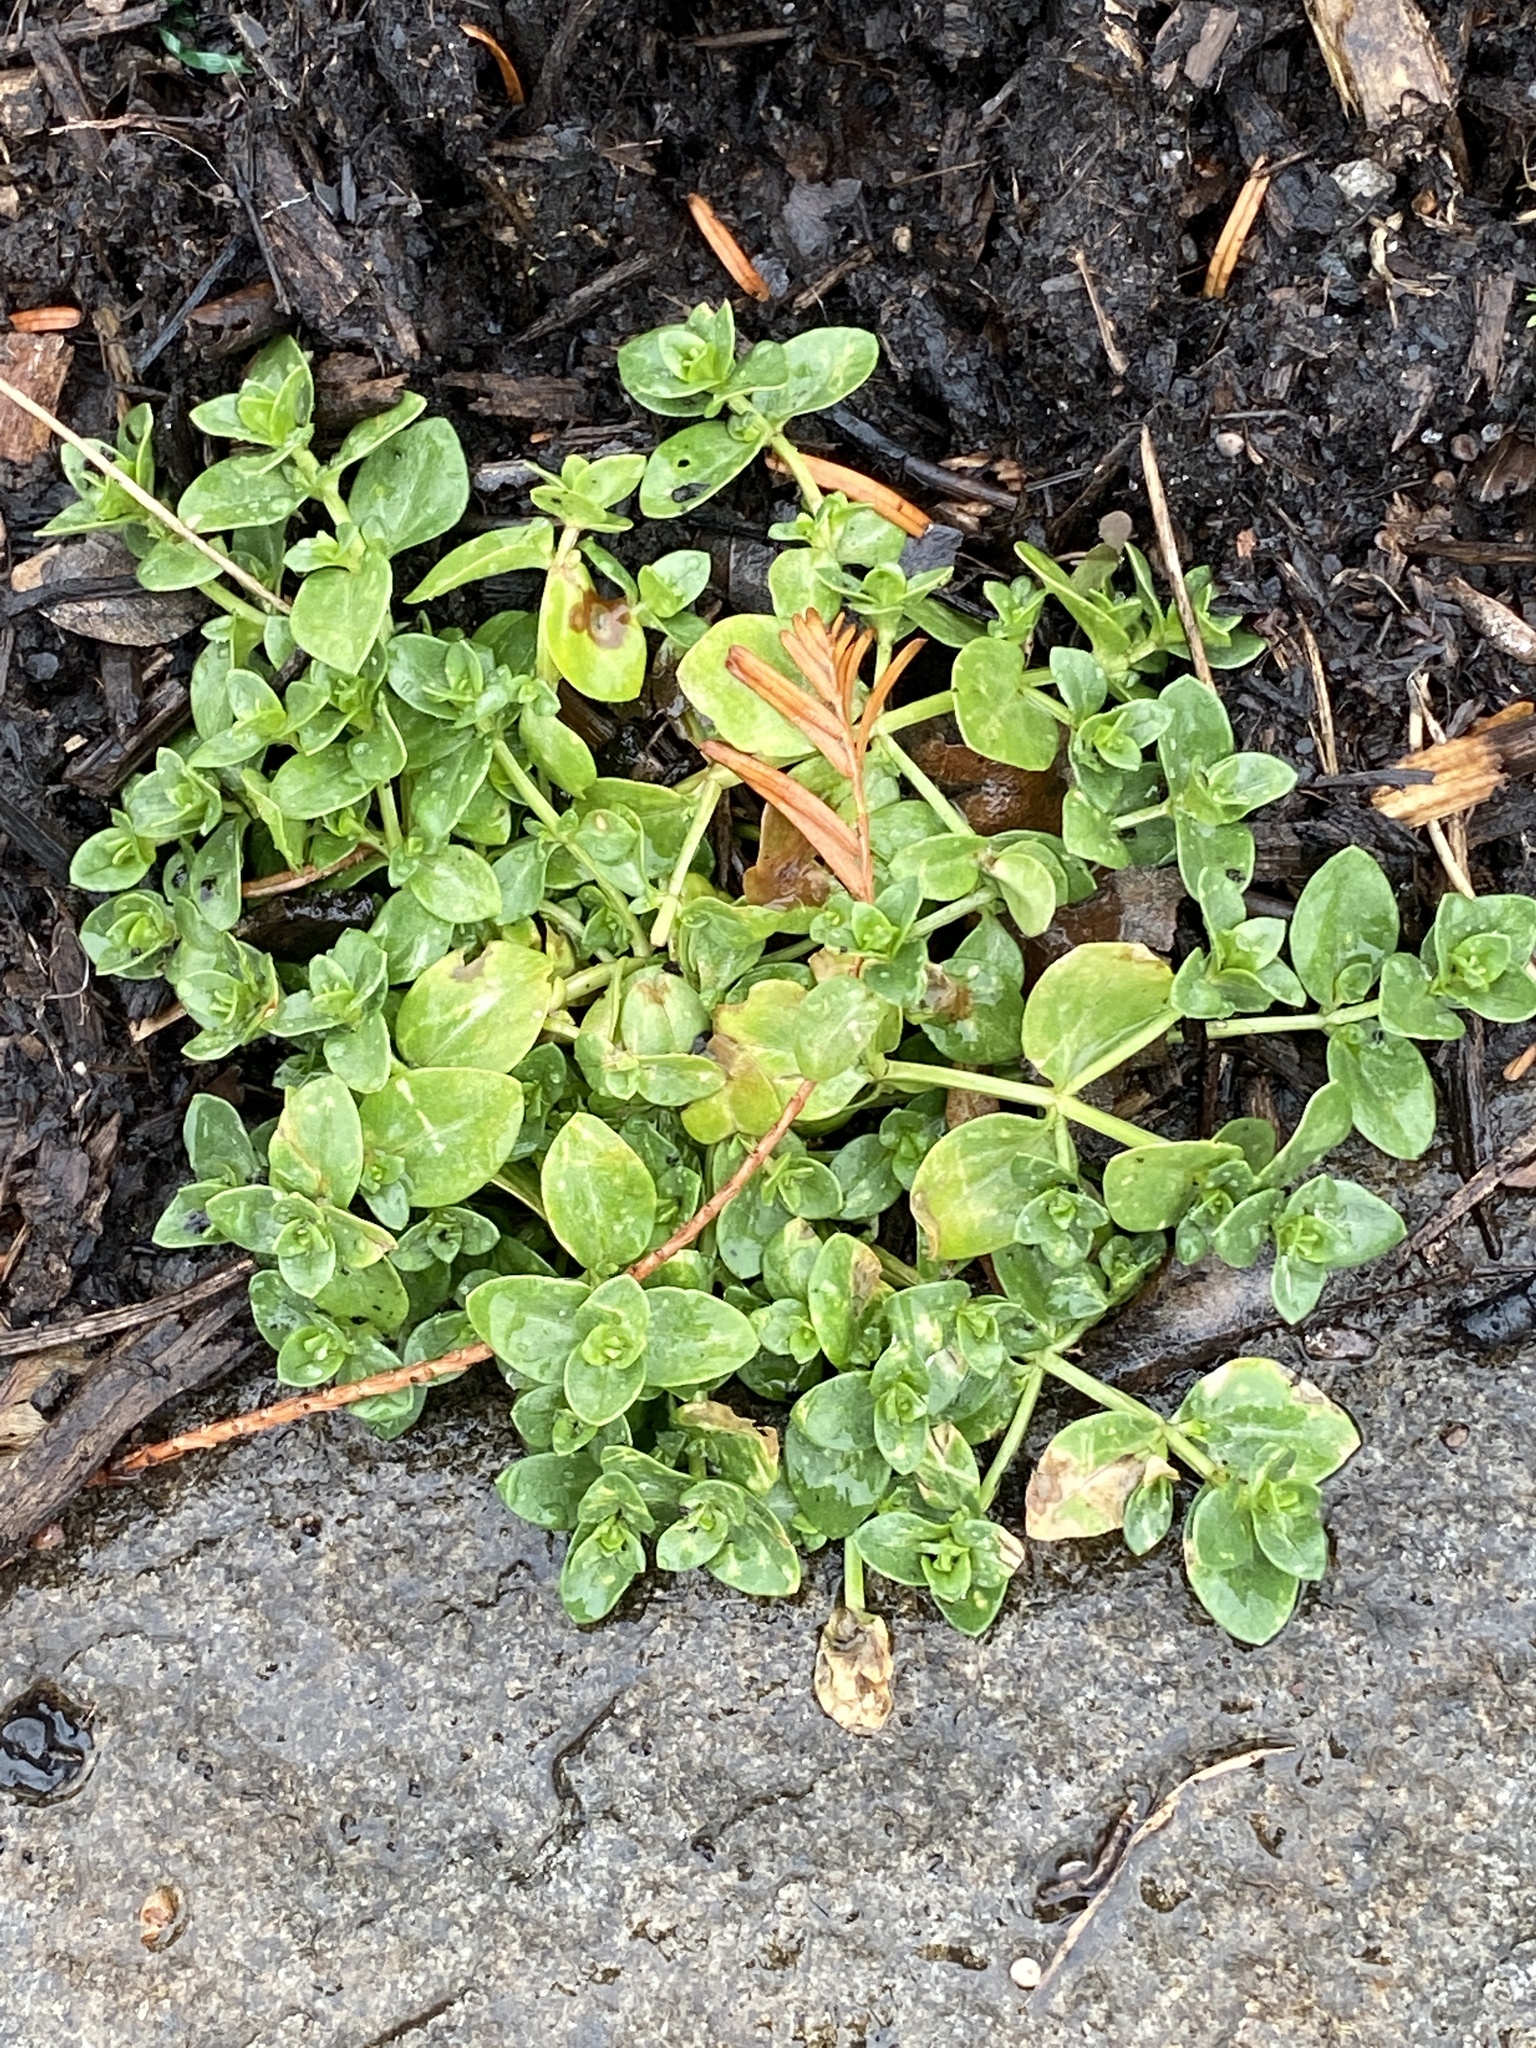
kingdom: Plantae
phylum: Tracheophyta
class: Magnoliopsida
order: Lamiales
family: Plantaginaceae
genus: Veronica
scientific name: Veronica serpyllifolia
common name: Thyme-leaved speedwell
